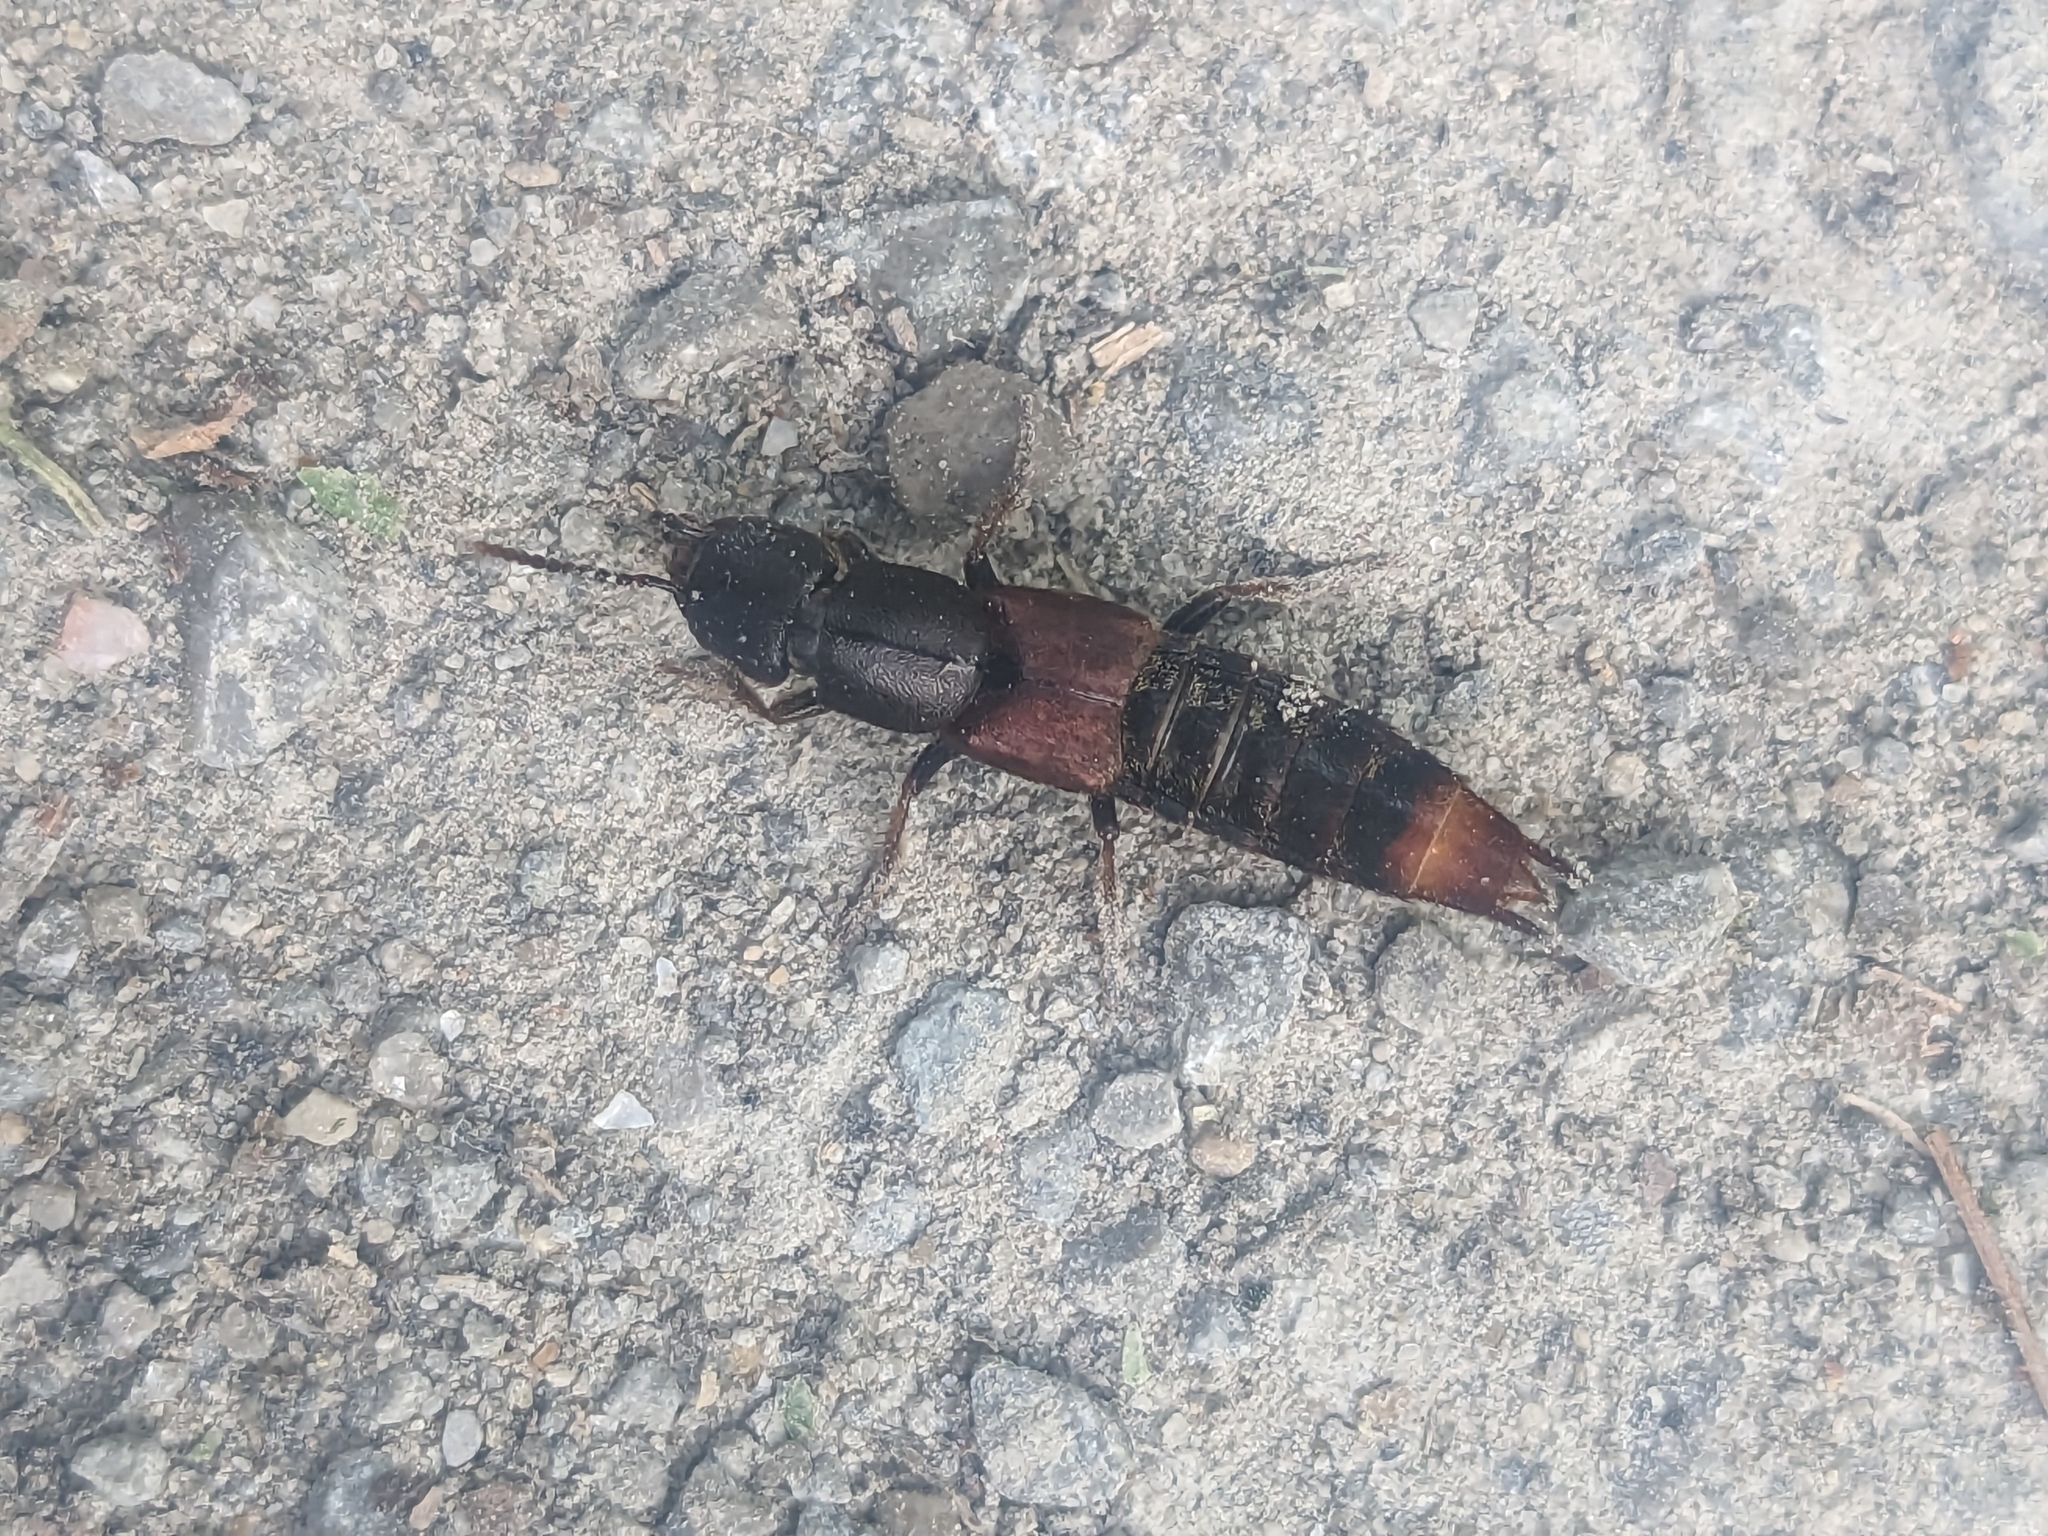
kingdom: Animalia
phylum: Arthropoda
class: Insecta
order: Coleoptera
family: Staphylinidae
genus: Platydracus
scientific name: Platydracus cinnamopterus
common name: Cinnamon rove beetle
